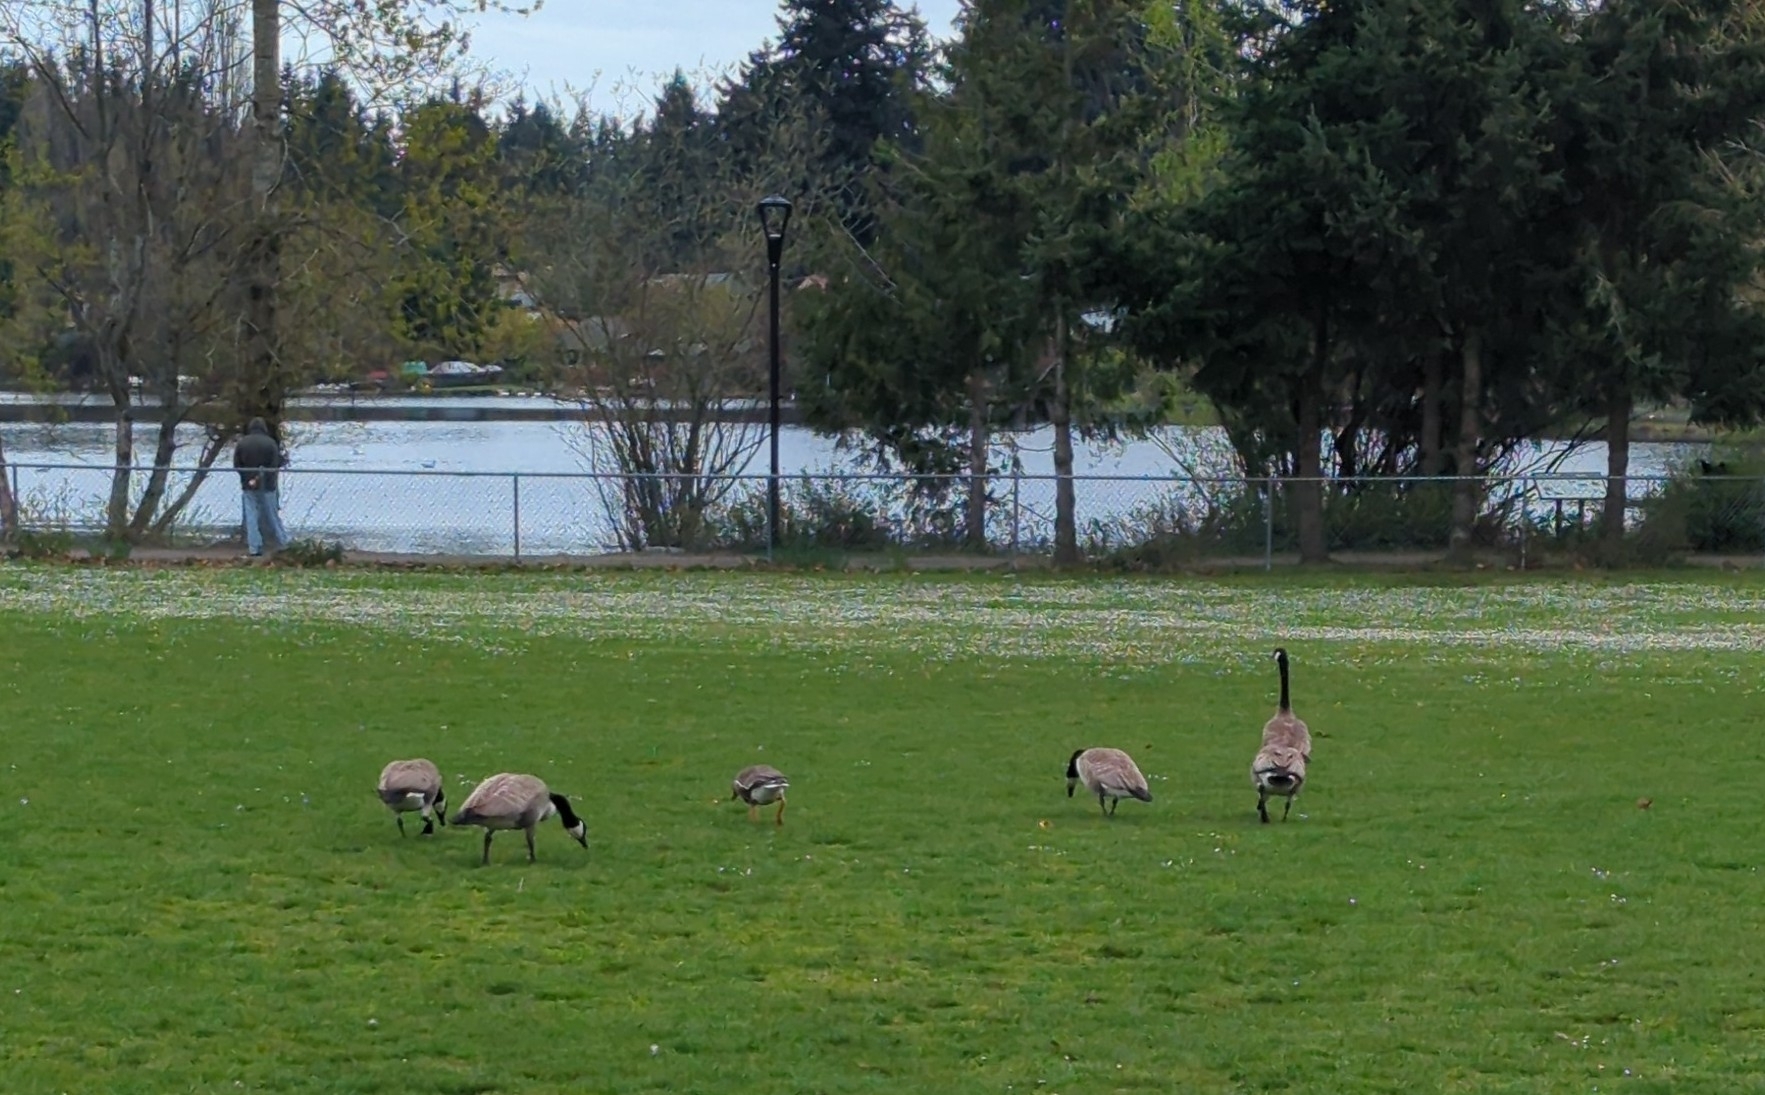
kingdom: Animalia
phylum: Chordata
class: Aves
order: Anseriformes
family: Anatidae
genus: Anser
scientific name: Anser albifrons
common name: Greater white-fronted goose
